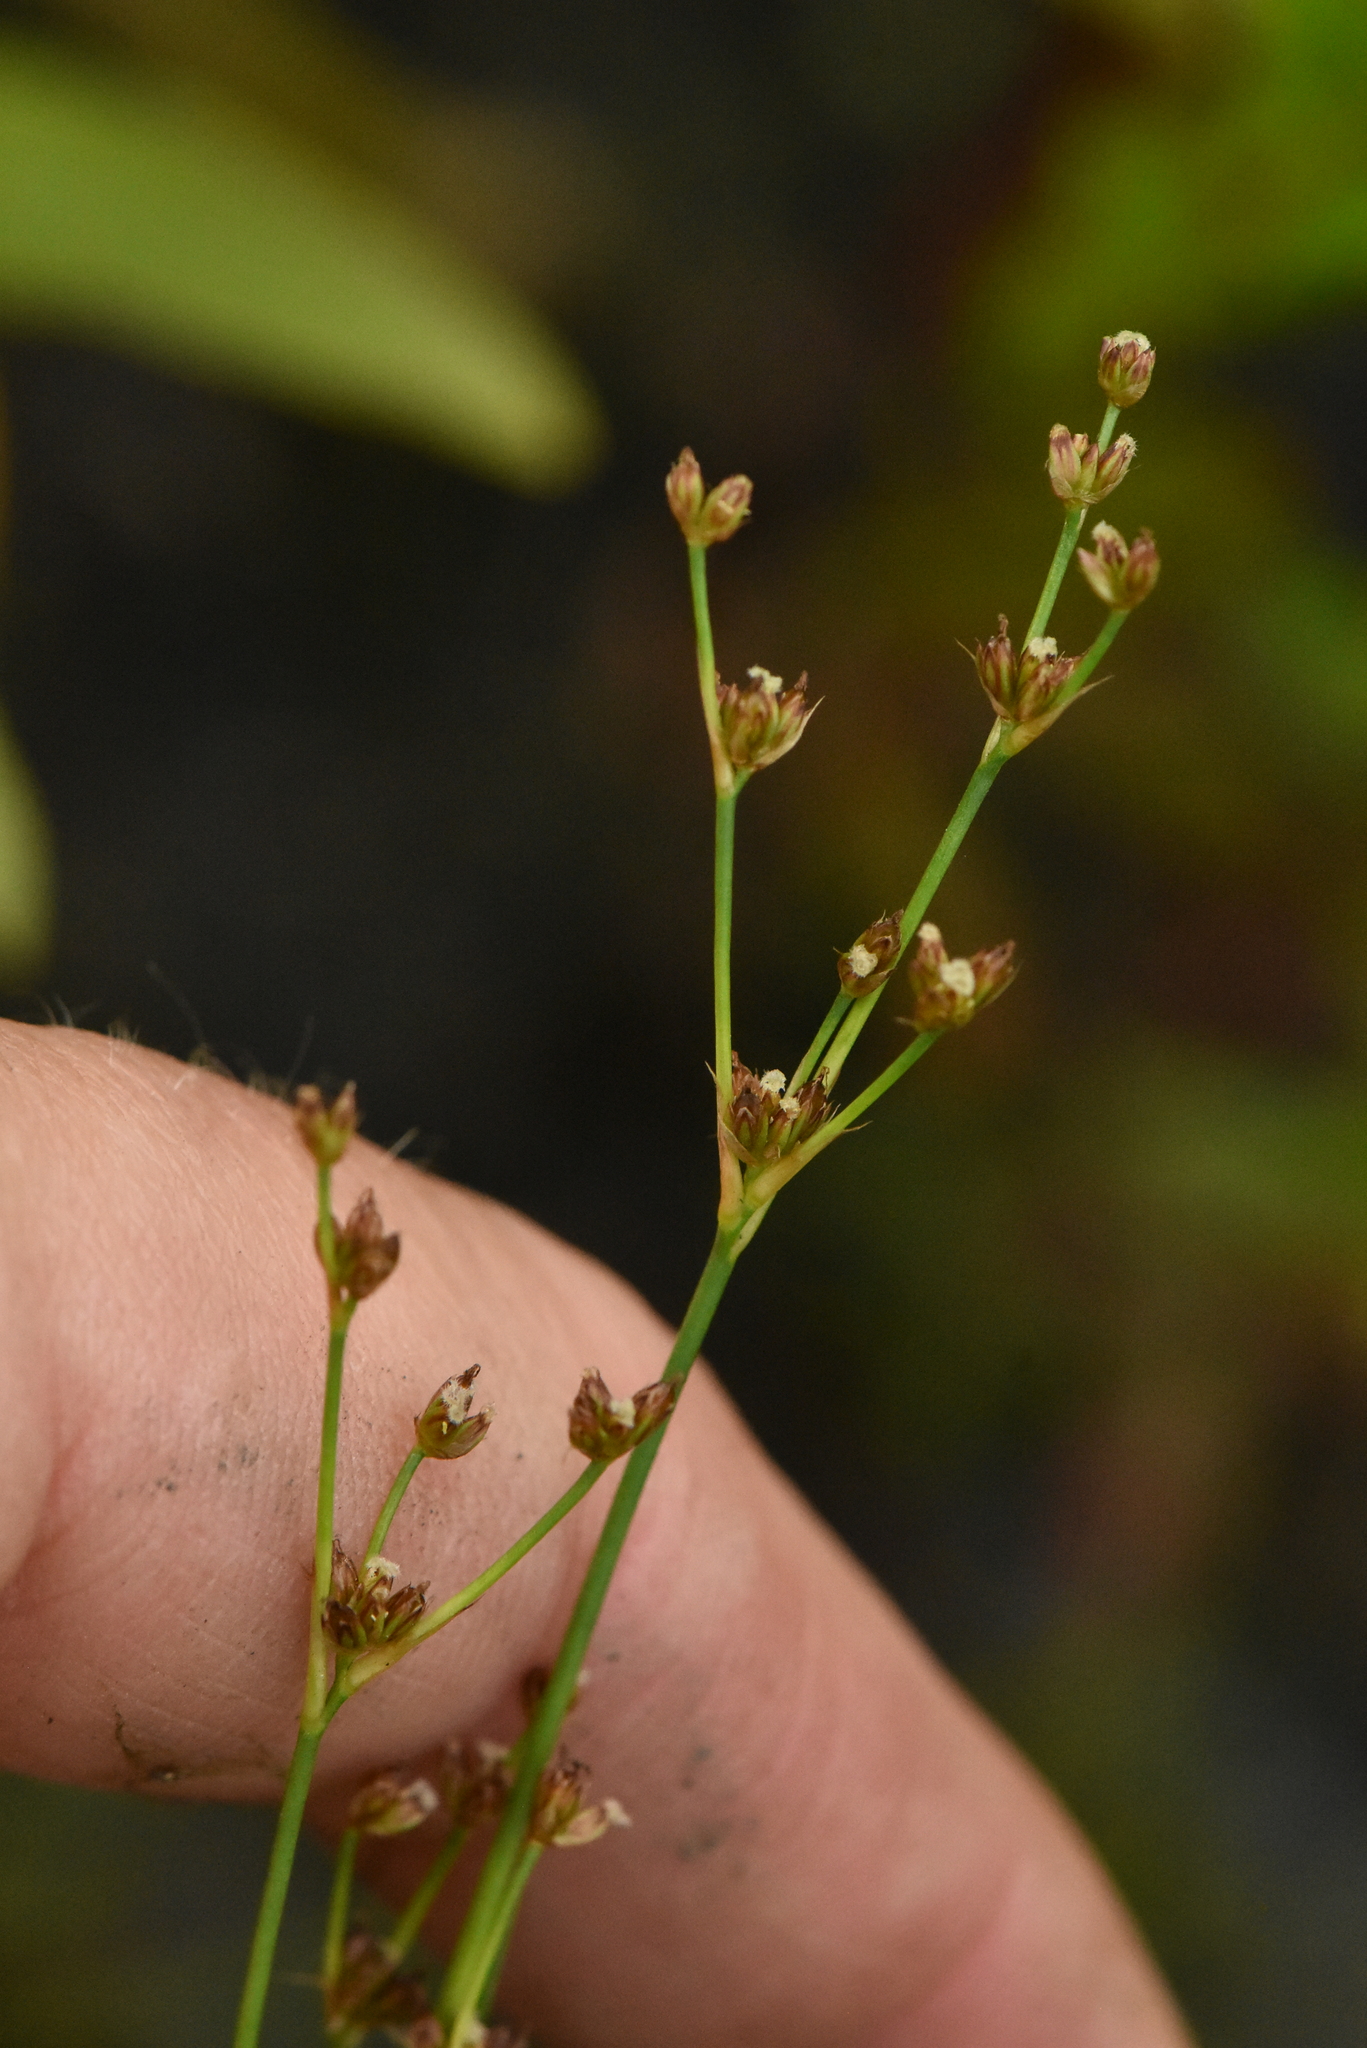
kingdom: Plantae
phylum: Tracheophyta
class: Liliopsida
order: Poales
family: Juncaceae
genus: Juncus
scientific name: Juncus alpinoarticulatus
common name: Alpine rush
